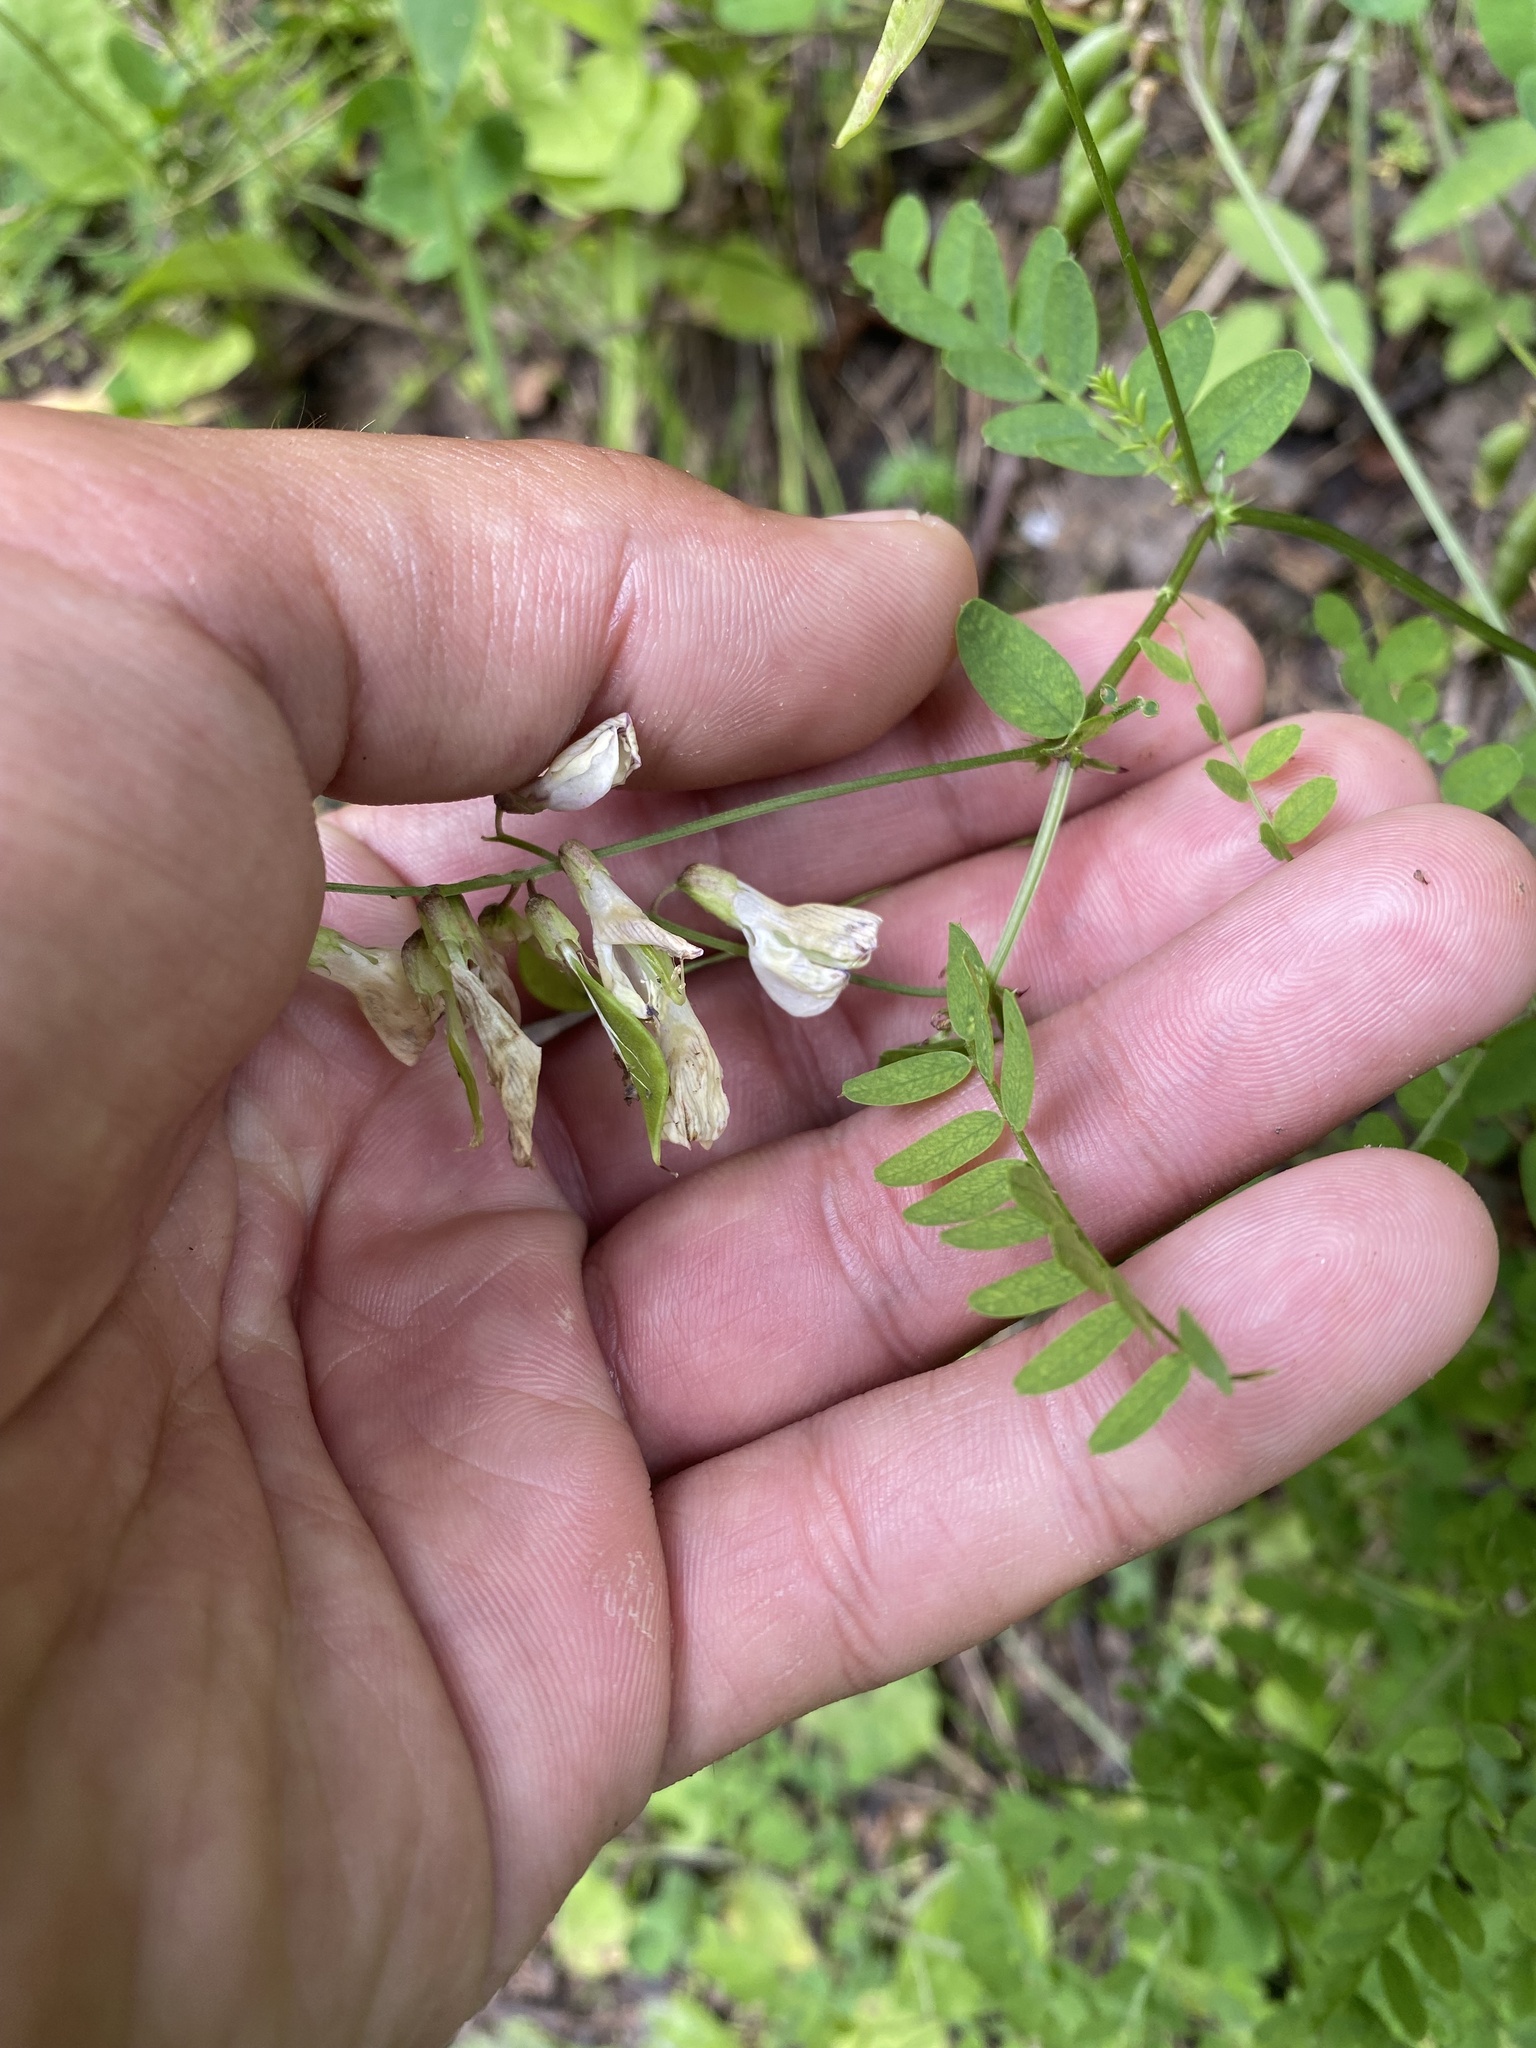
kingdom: Plantae
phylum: Tracheophyta
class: Magnoliopsida
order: Fabales
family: Fabaceae
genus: Vicia
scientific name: Vicia sylvatica
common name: Wood vetch
